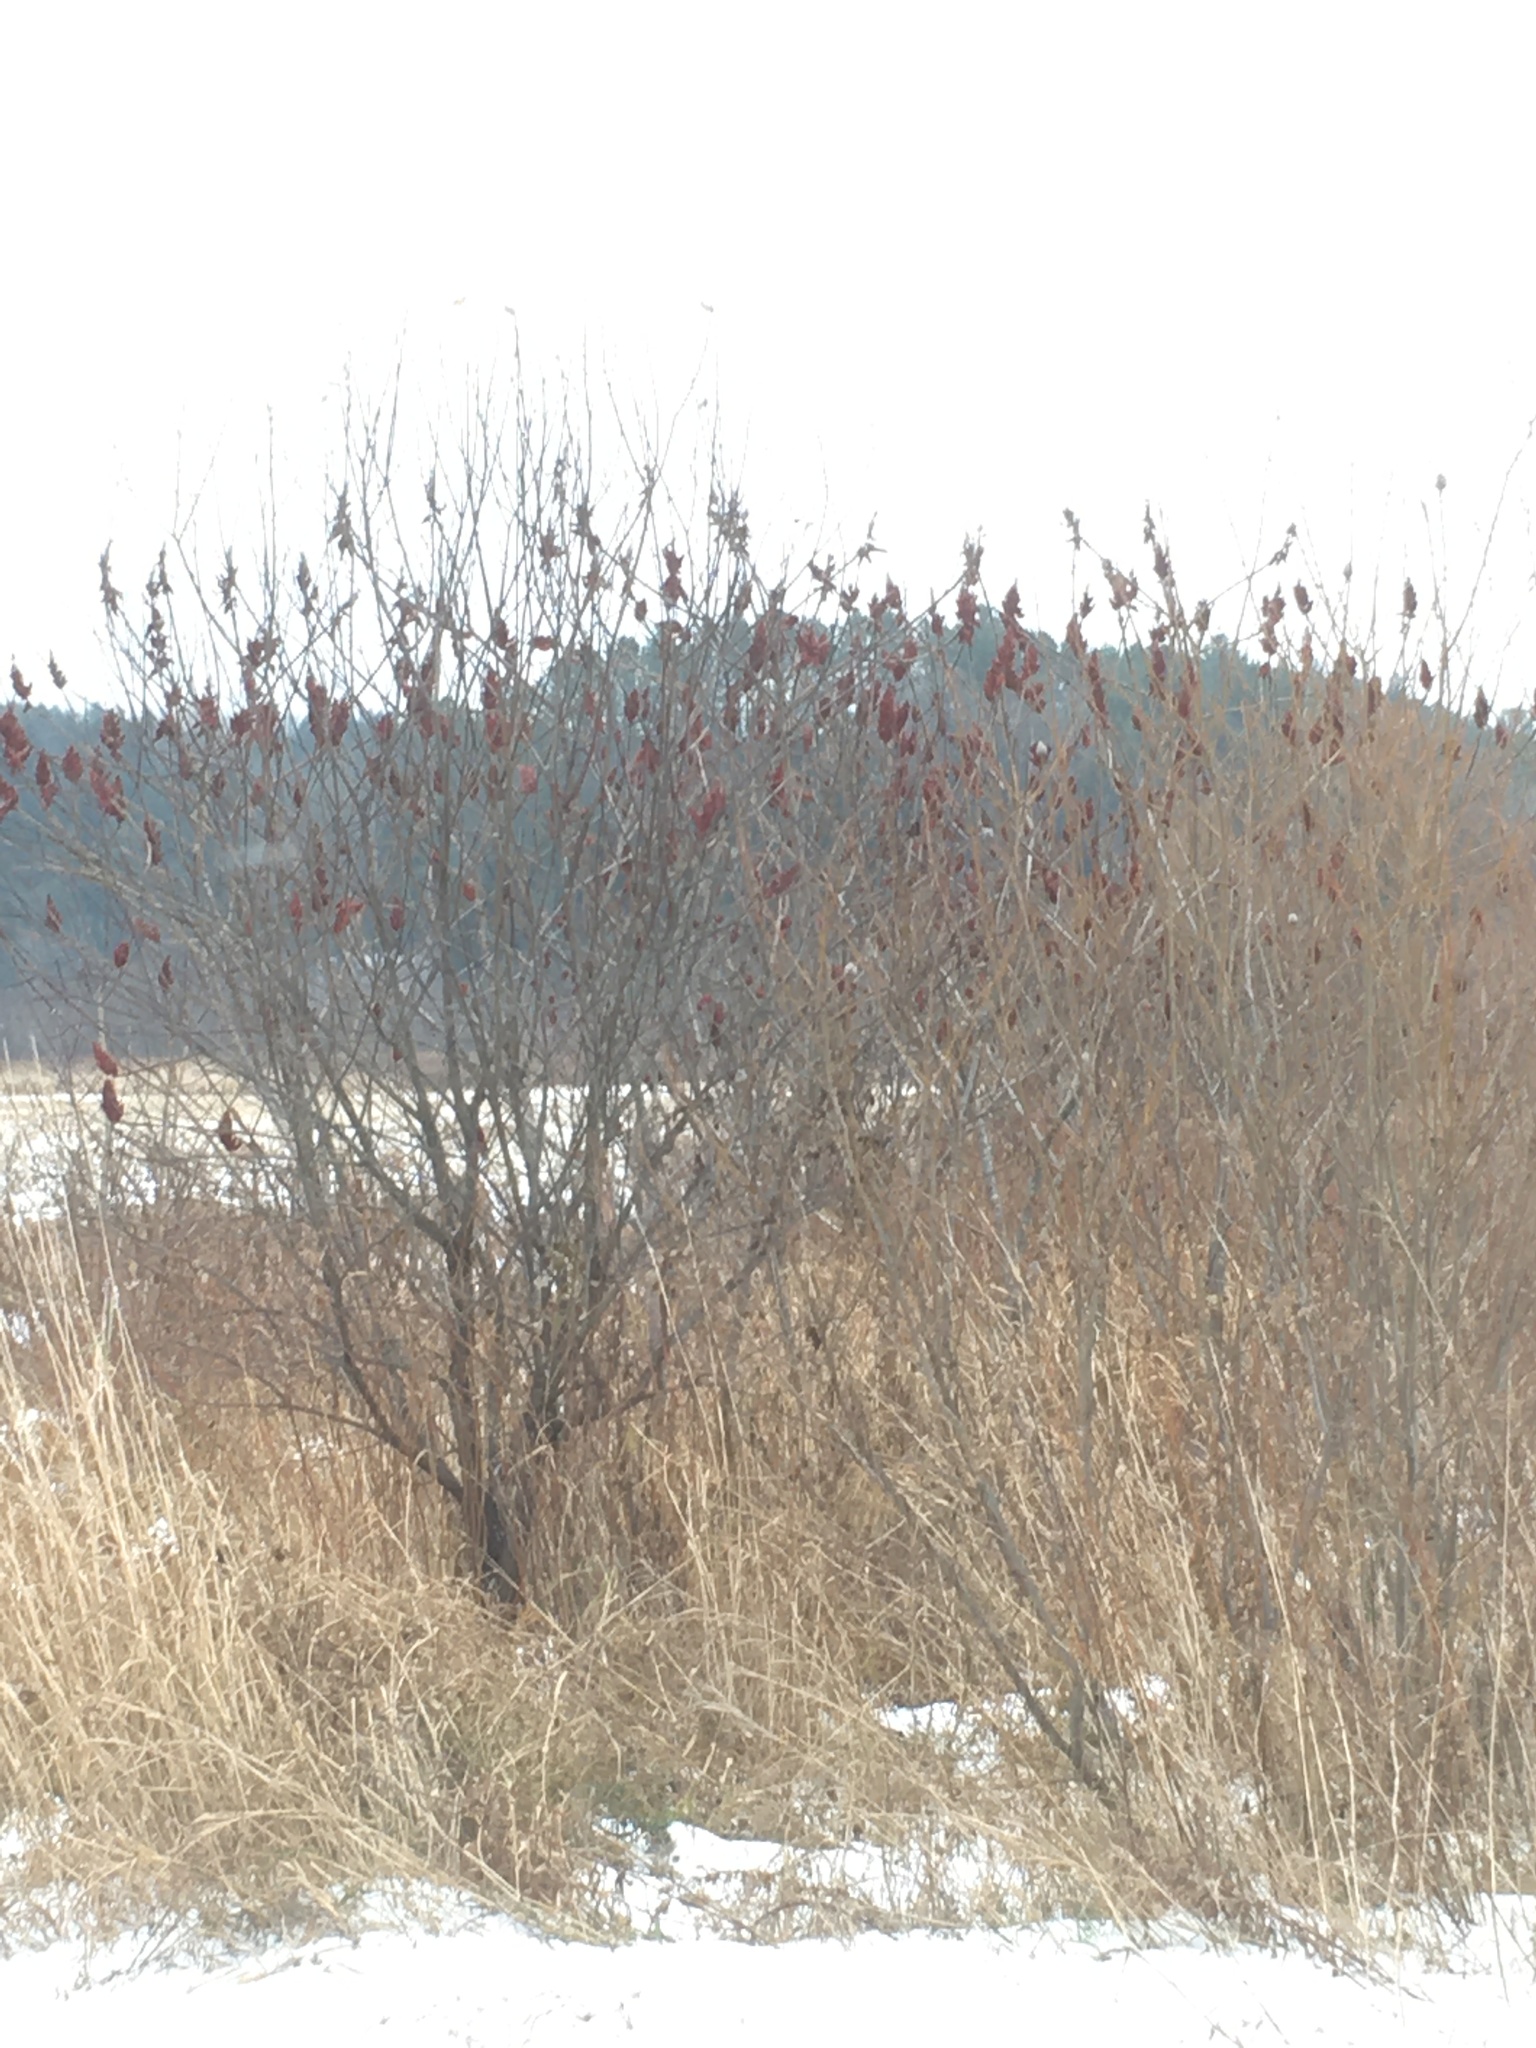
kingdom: Plantae
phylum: Tracheophyta
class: Magnoliopsida
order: Sapindales
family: Anacardiaceae
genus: Rhus
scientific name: Rhus typhina
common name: Staghorn sumac
